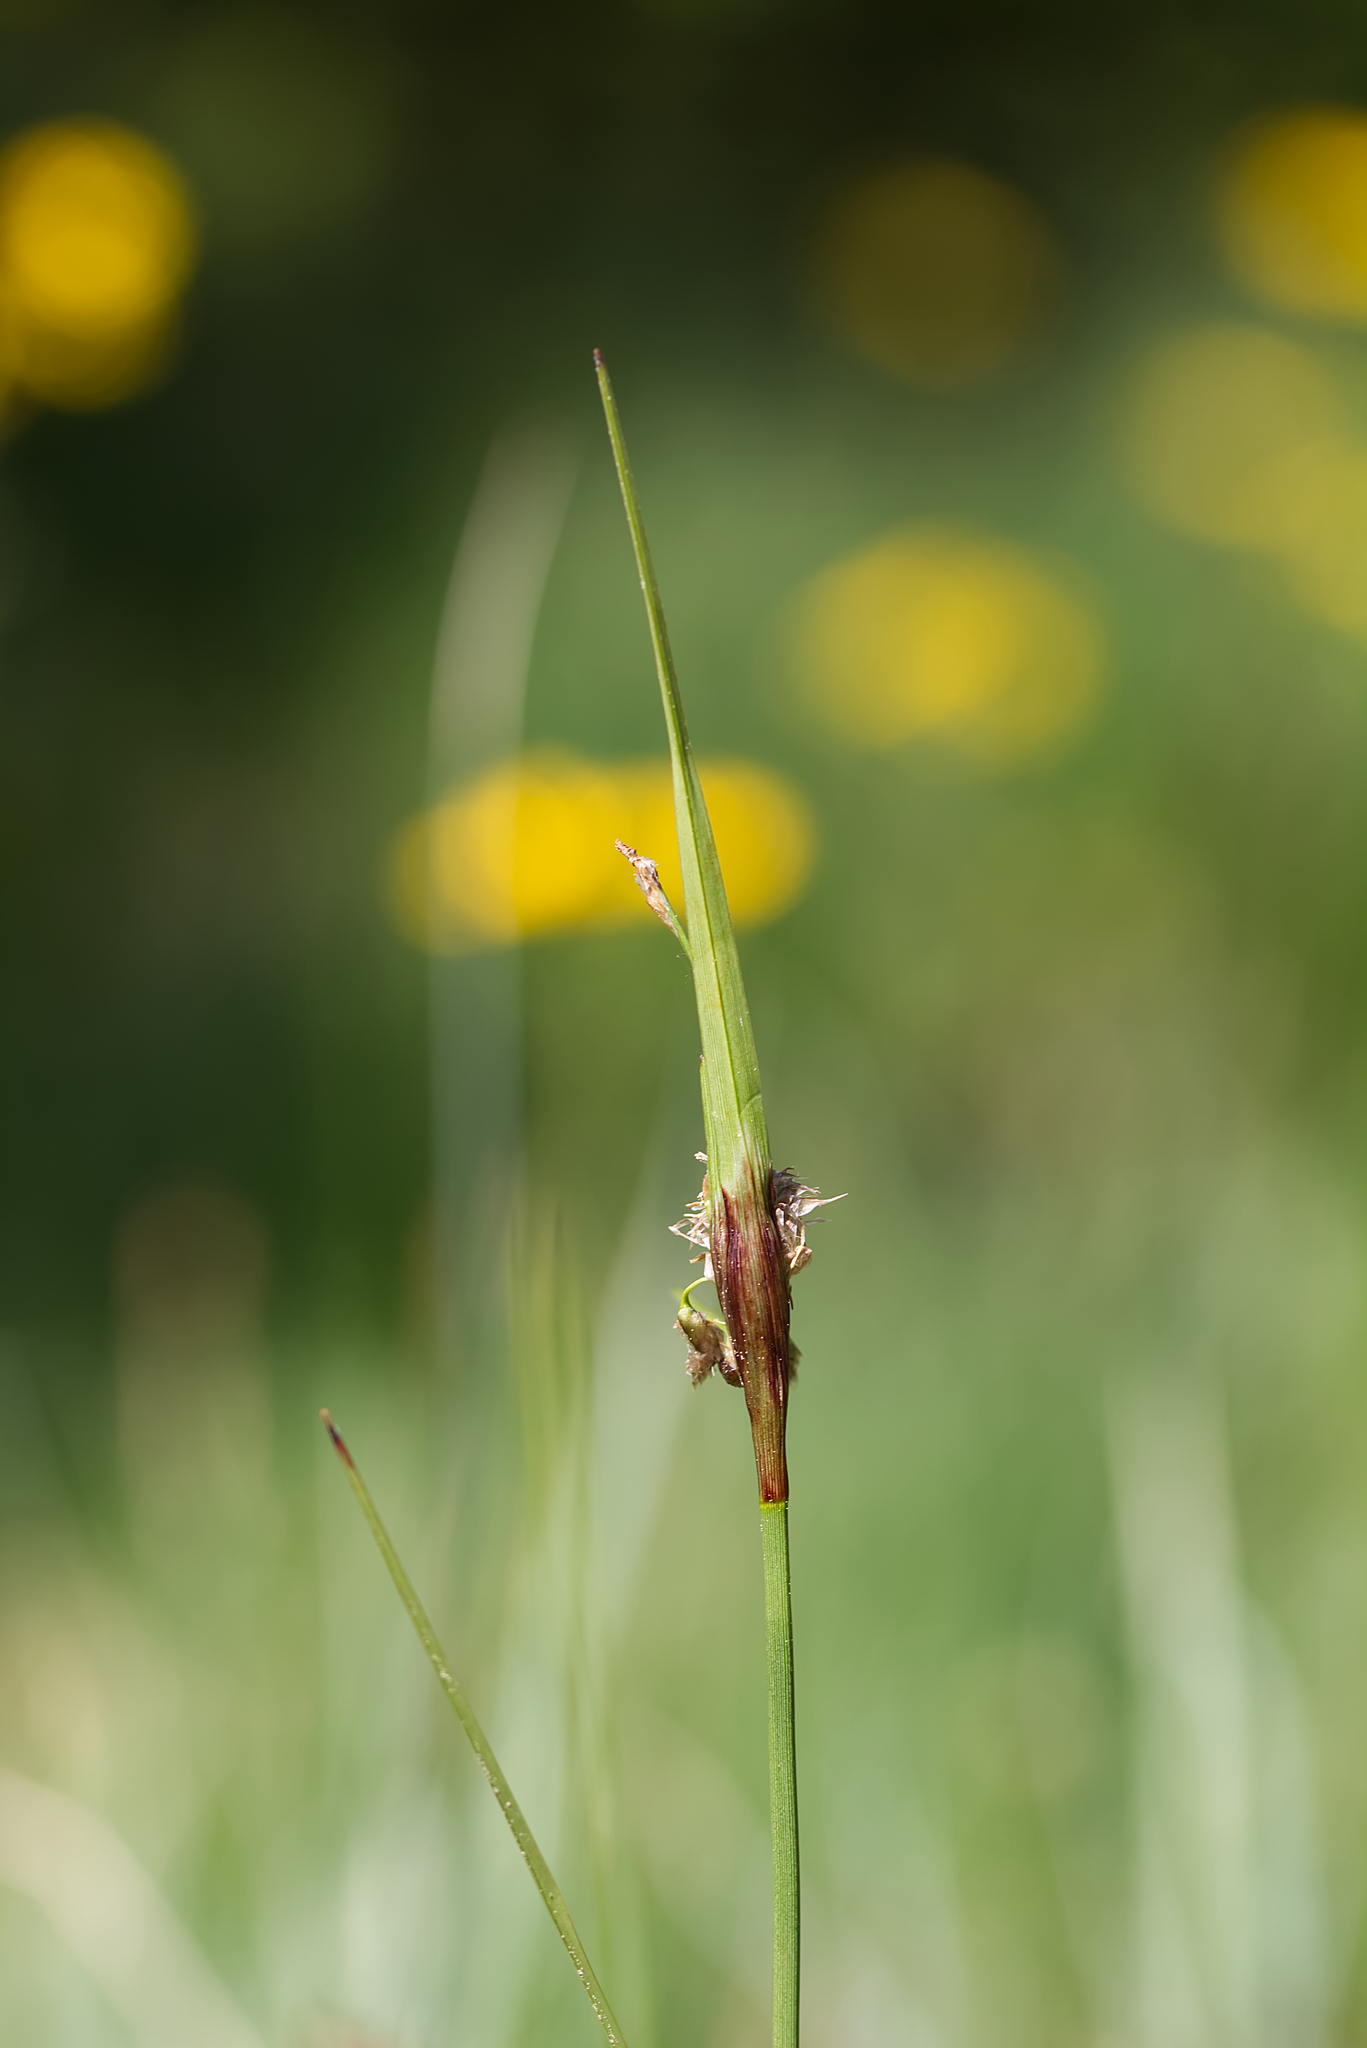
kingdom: Plantae
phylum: Tracheophyta
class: Liliopsida
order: Poales
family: Cyperaceae
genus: Eriophorum
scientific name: Eriophorum angustifolium
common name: Common cottongrass
